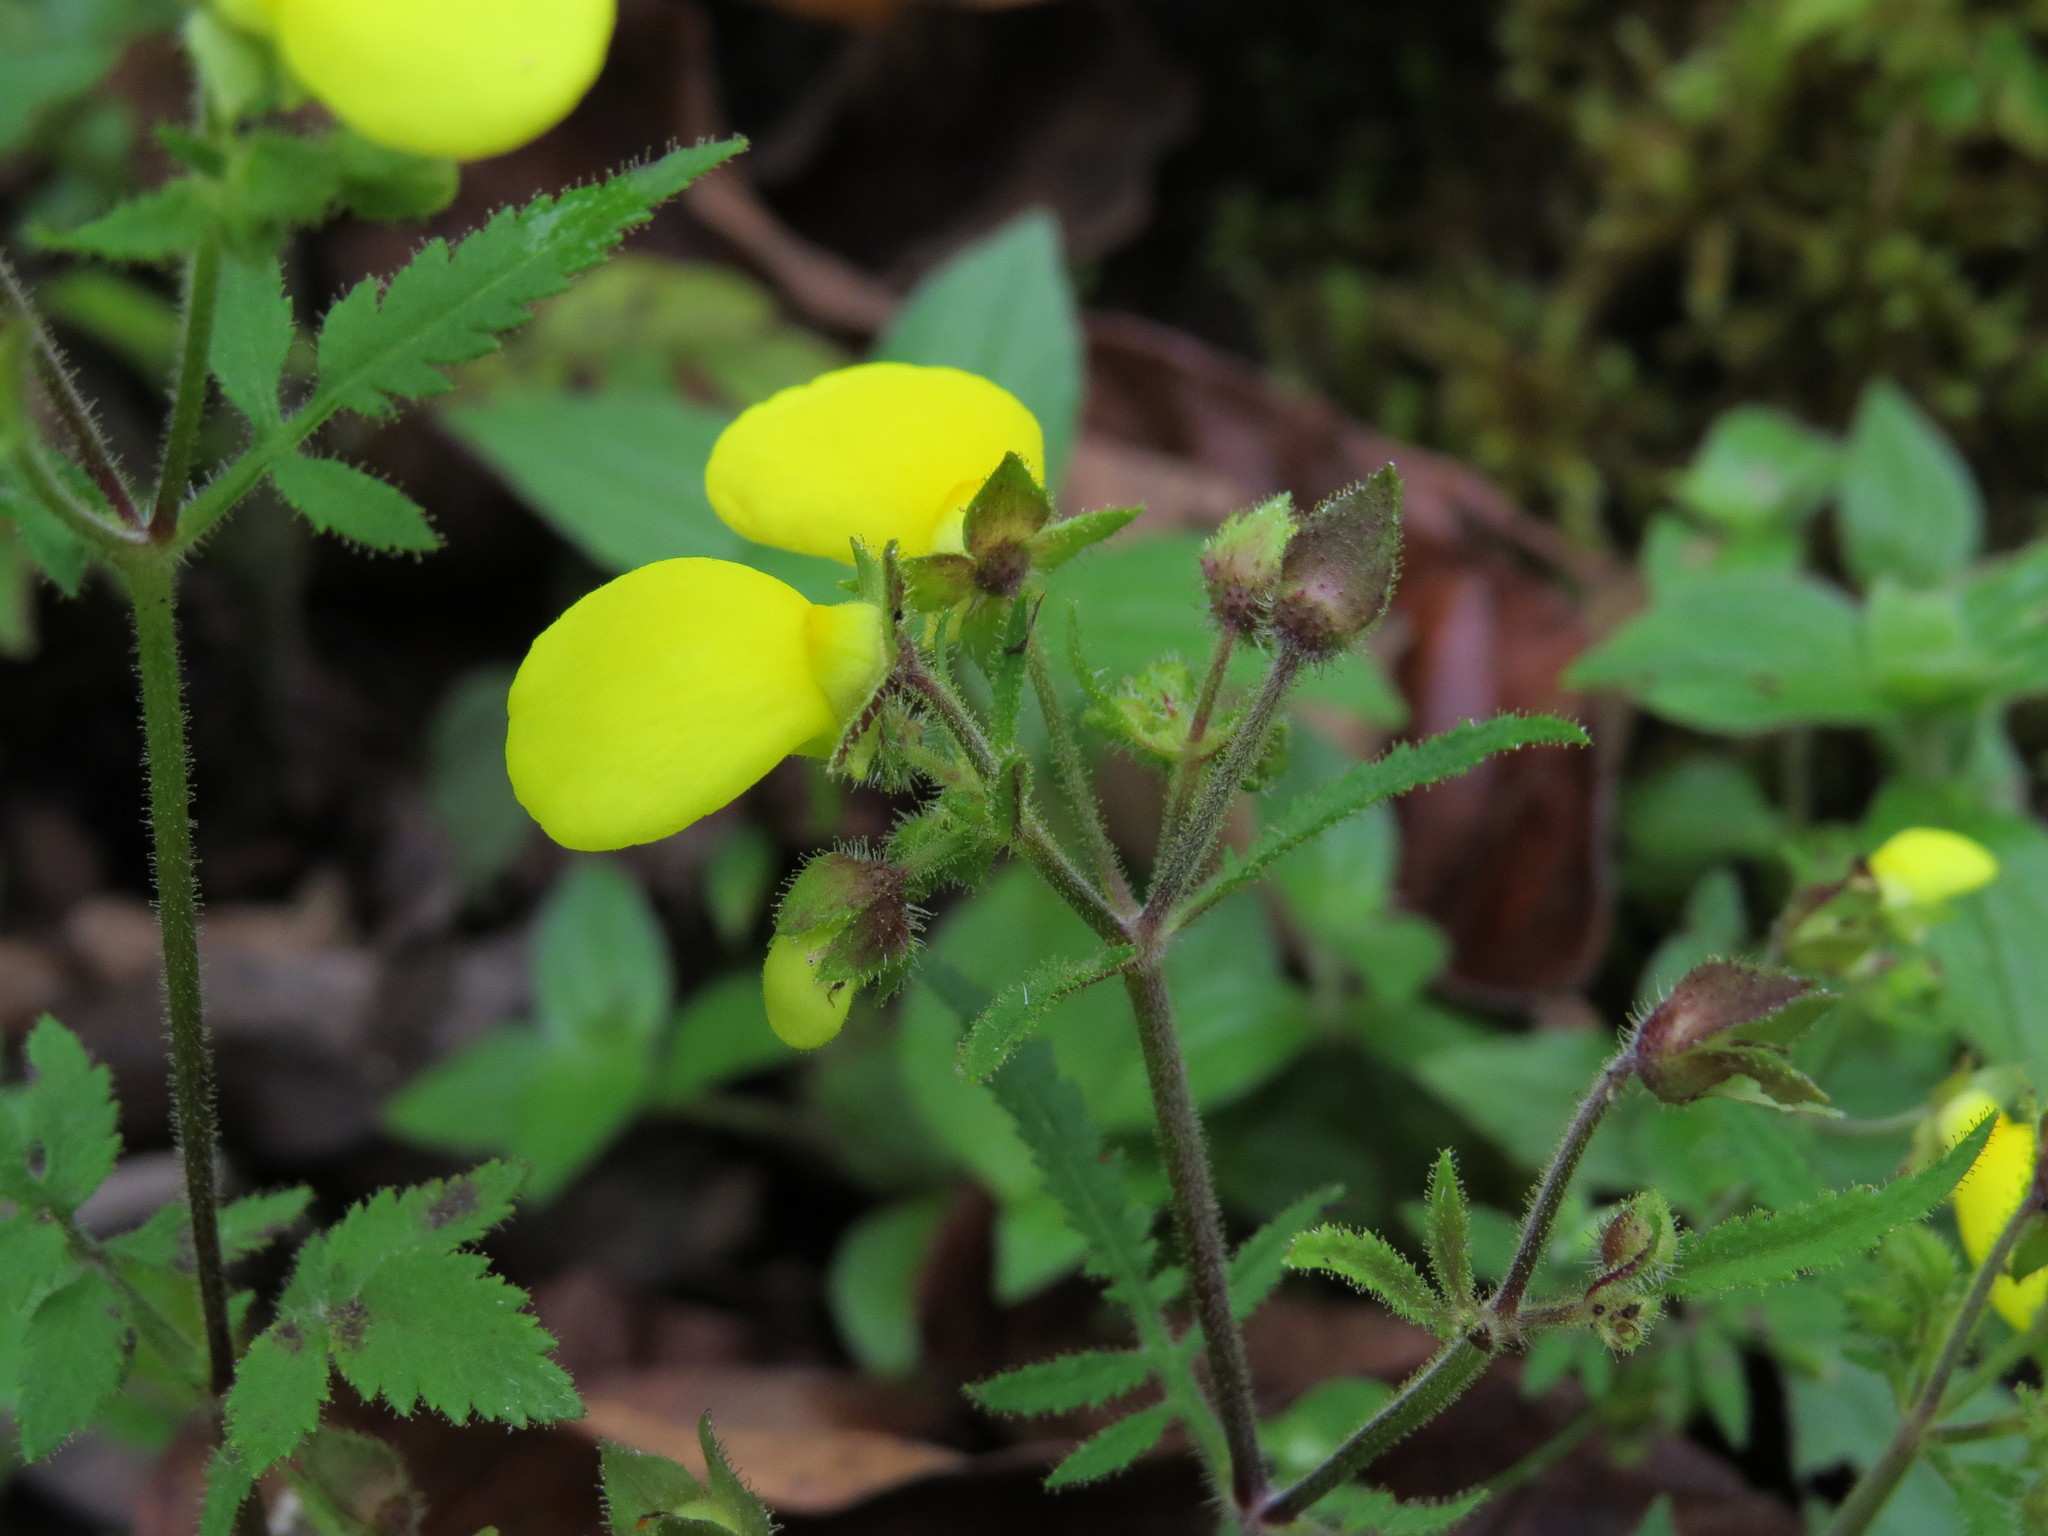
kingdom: Plantae
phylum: Tracheophyta
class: Magnoliopsida
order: Lamiales
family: Calceolariaceae
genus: Calceolaria
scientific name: Calceolaria tripartita
